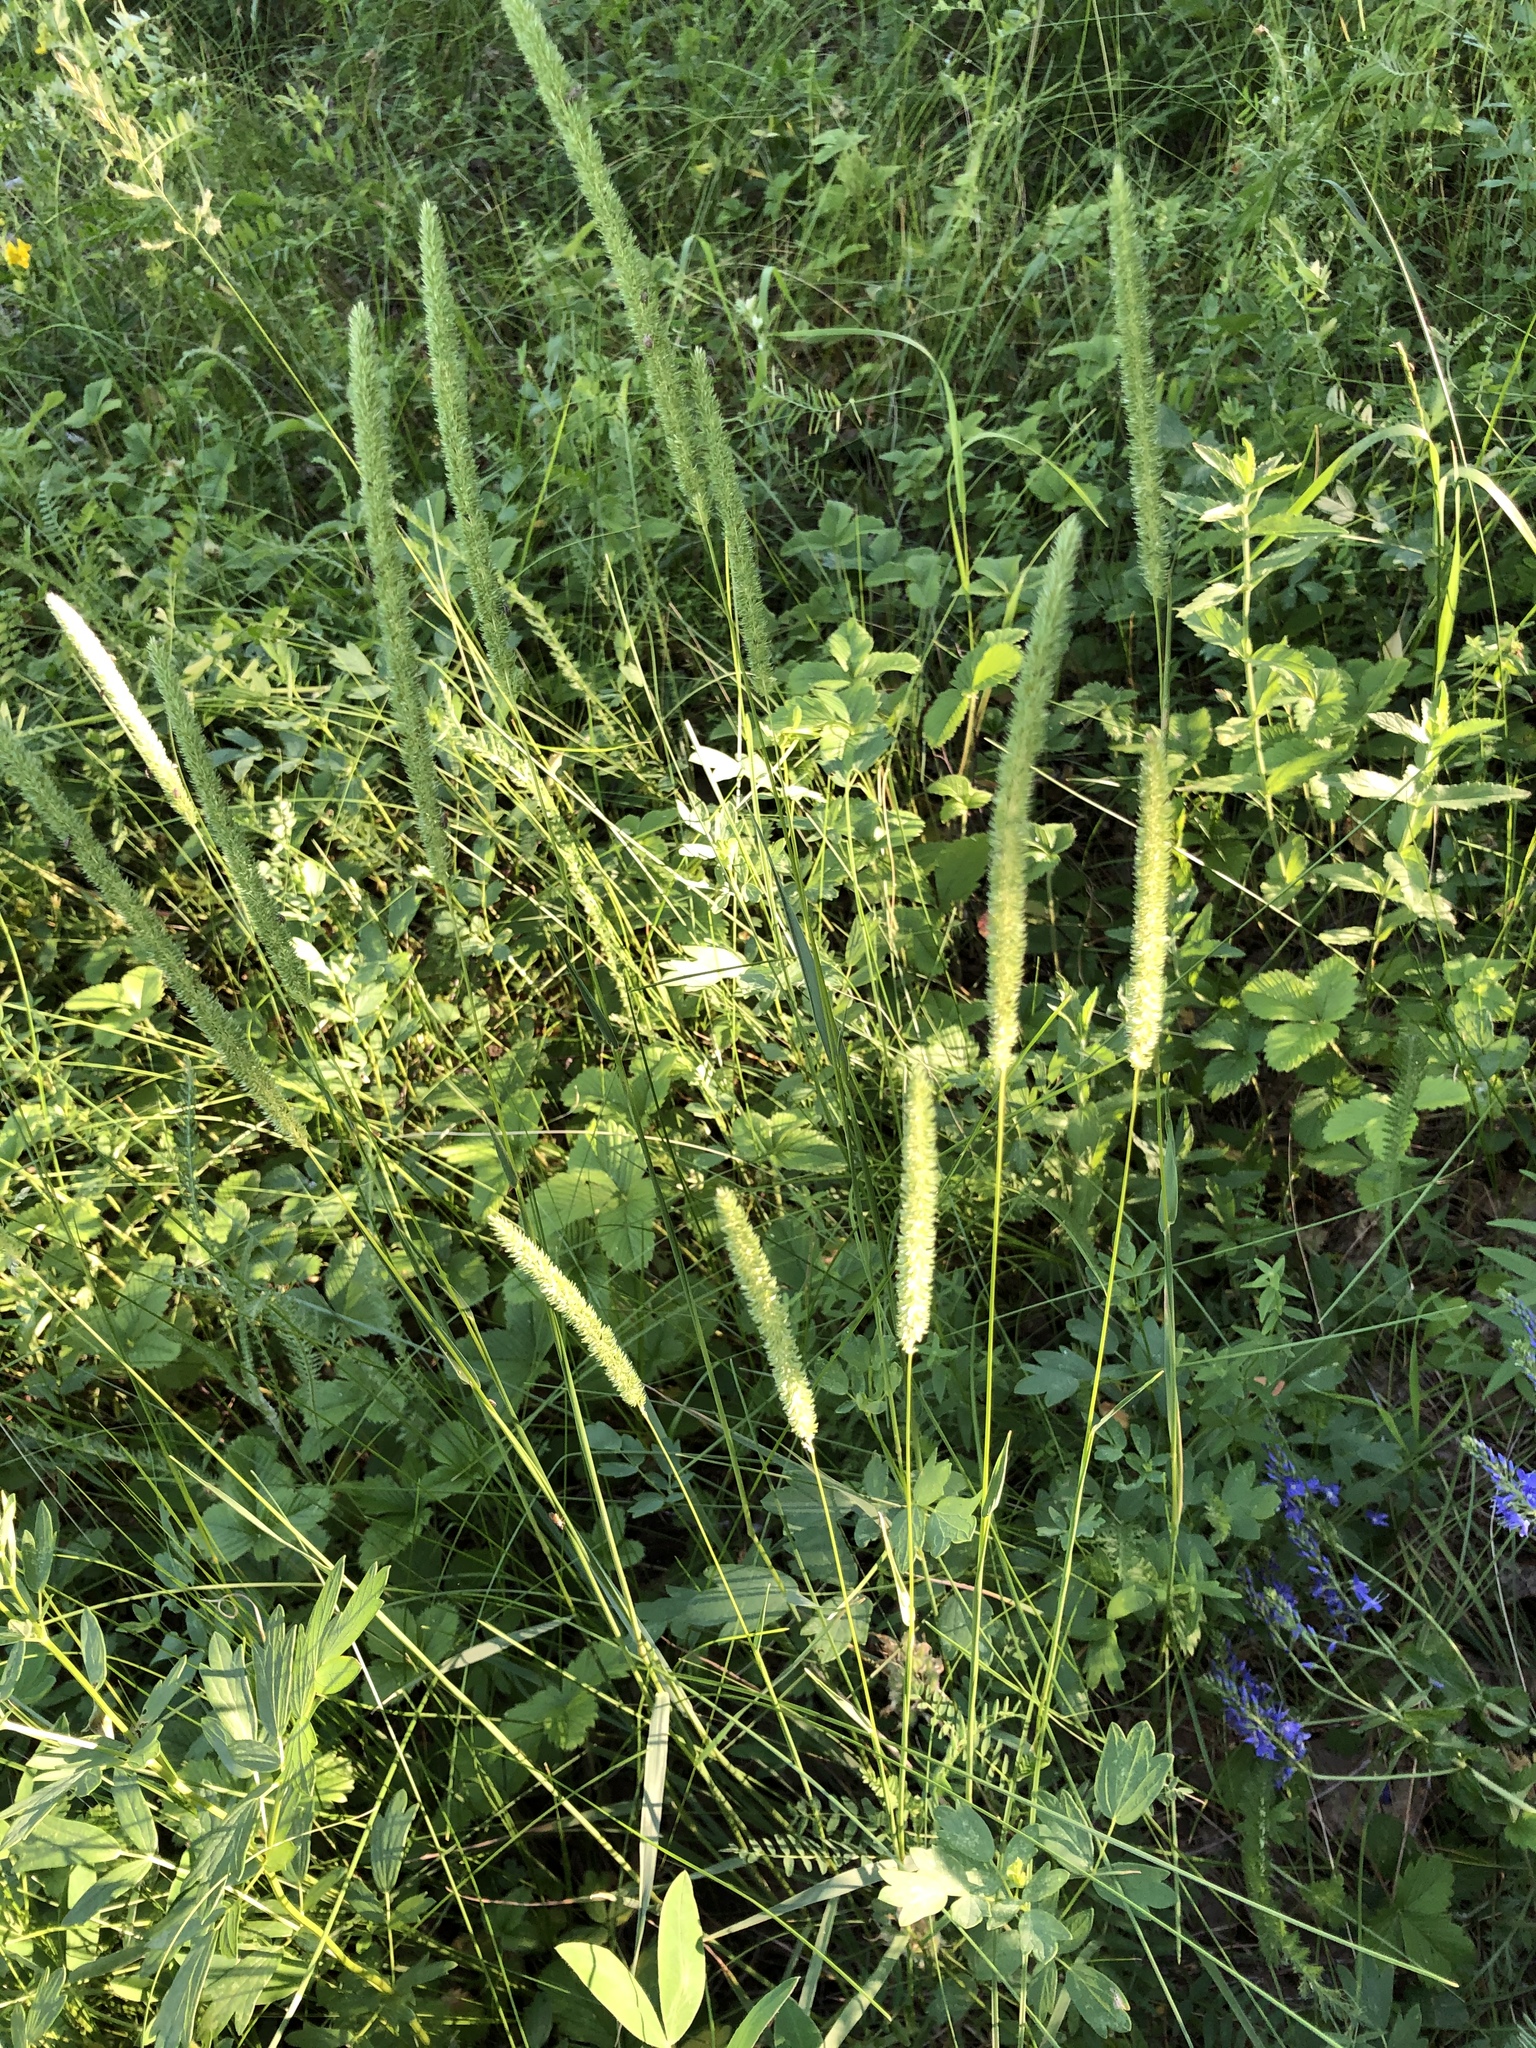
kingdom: Plantae
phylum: Tracheophyta
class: Liliopsida
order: Poales
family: Poaceae
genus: Phleum
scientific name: Phleum phleoides
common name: Purple-stem cat's-tail
